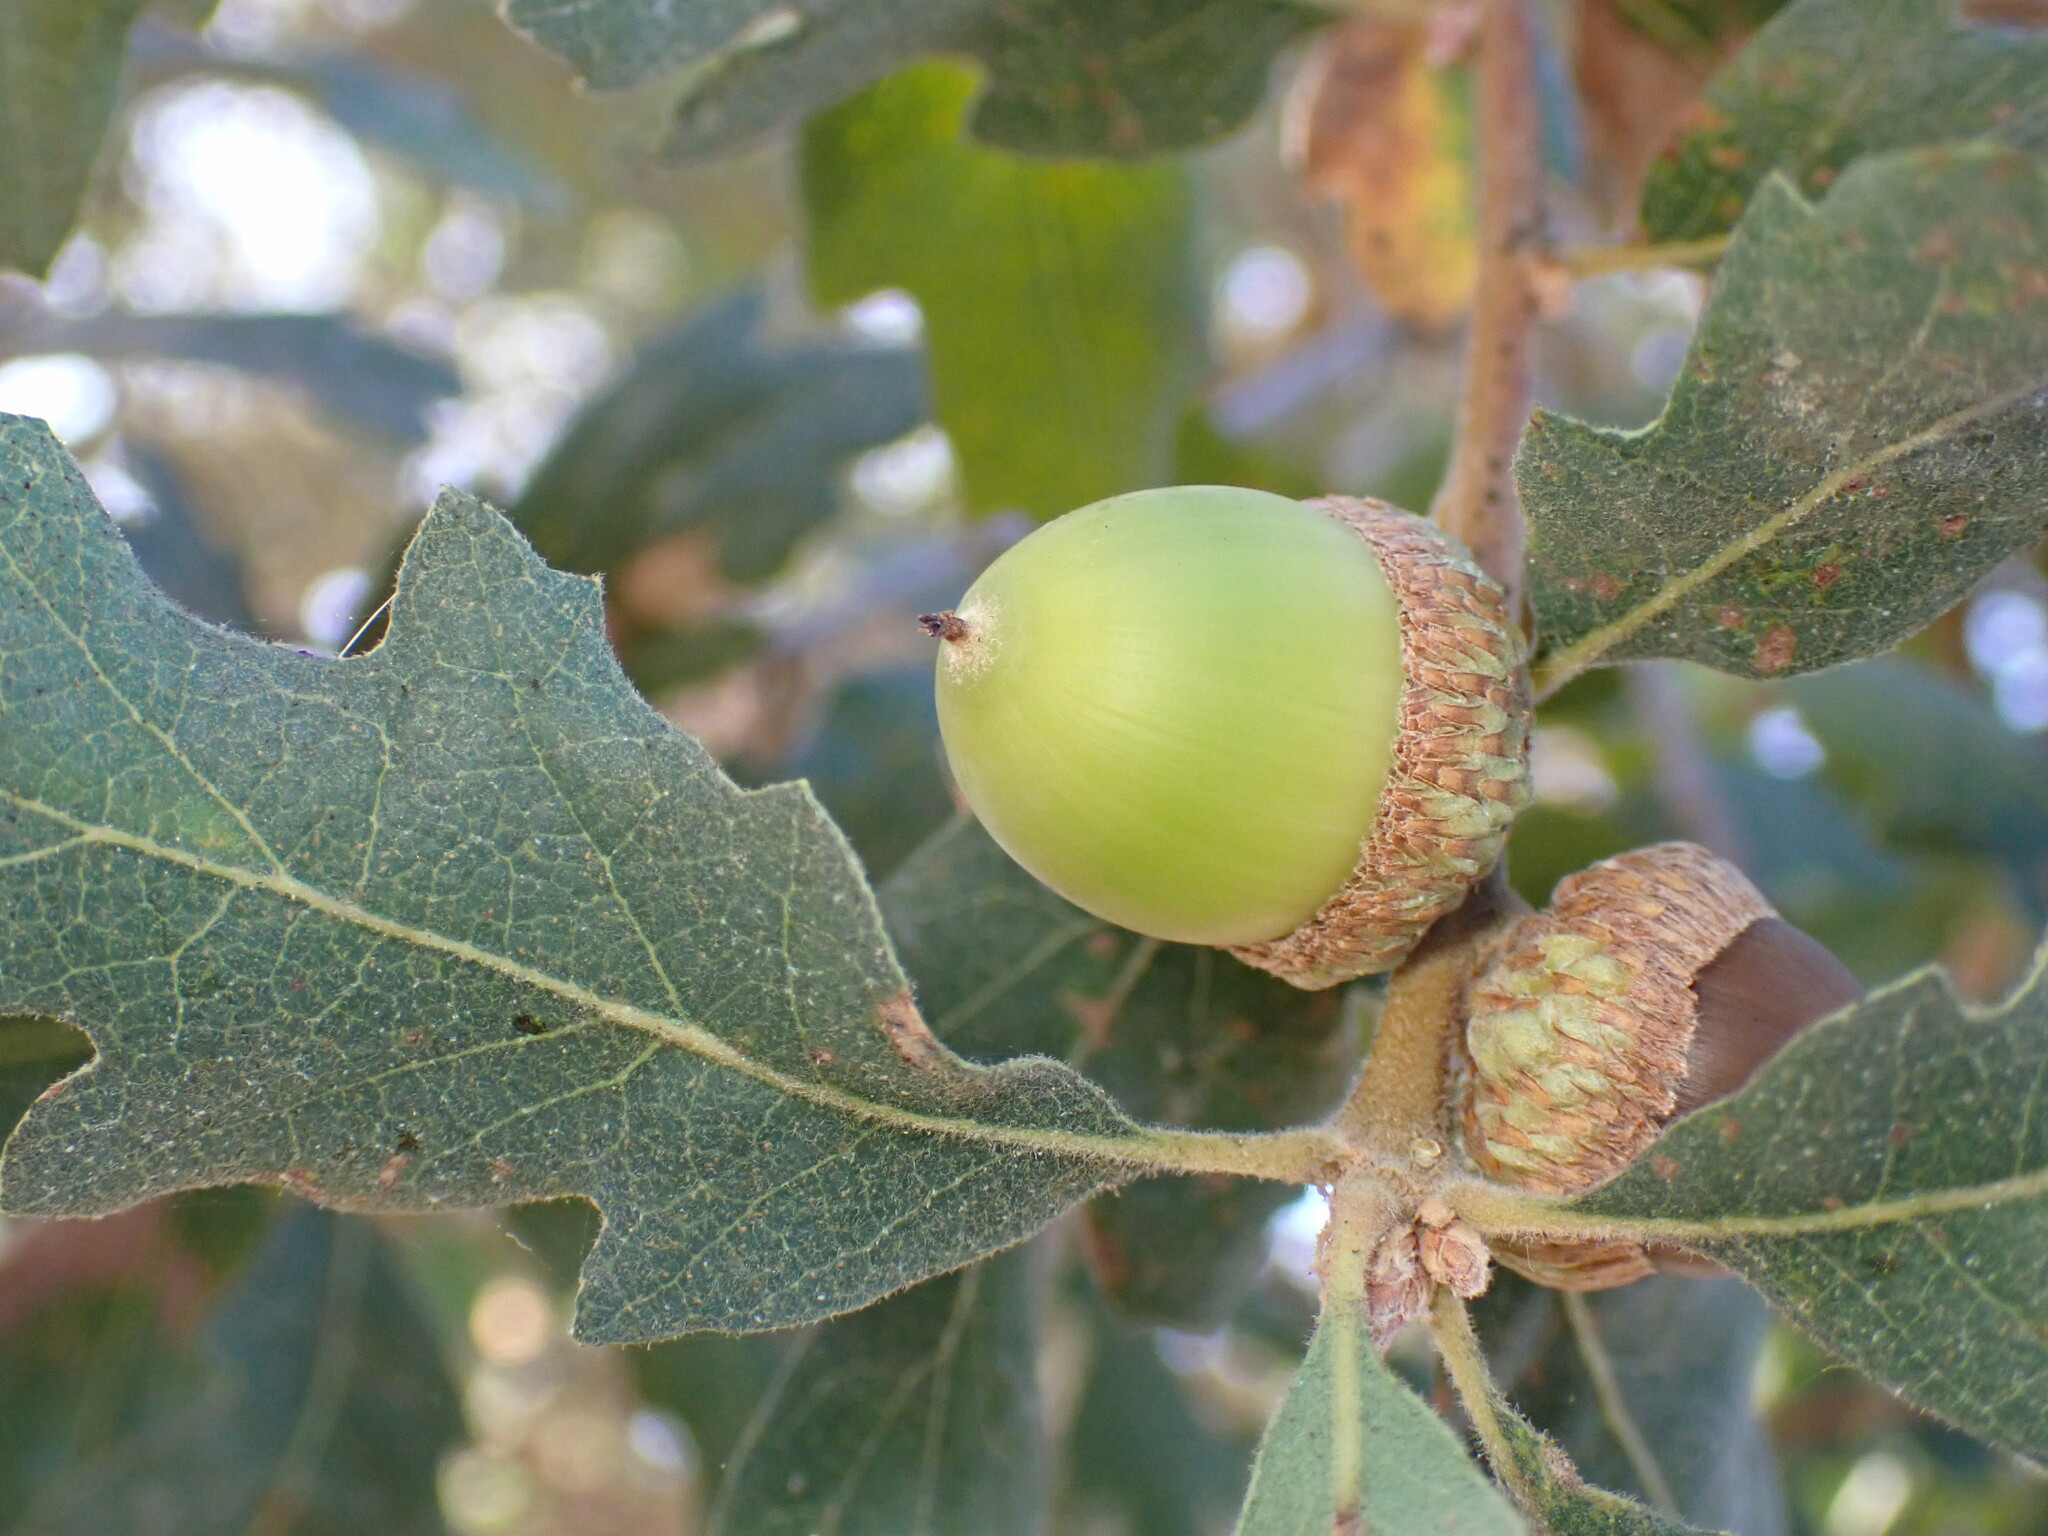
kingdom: Plantae
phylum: Tracheophyta
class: Magnoliopsida
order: Fagales
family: Fagaceae
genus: Quercus
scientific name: Quercus douglasii
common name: Blue oak
